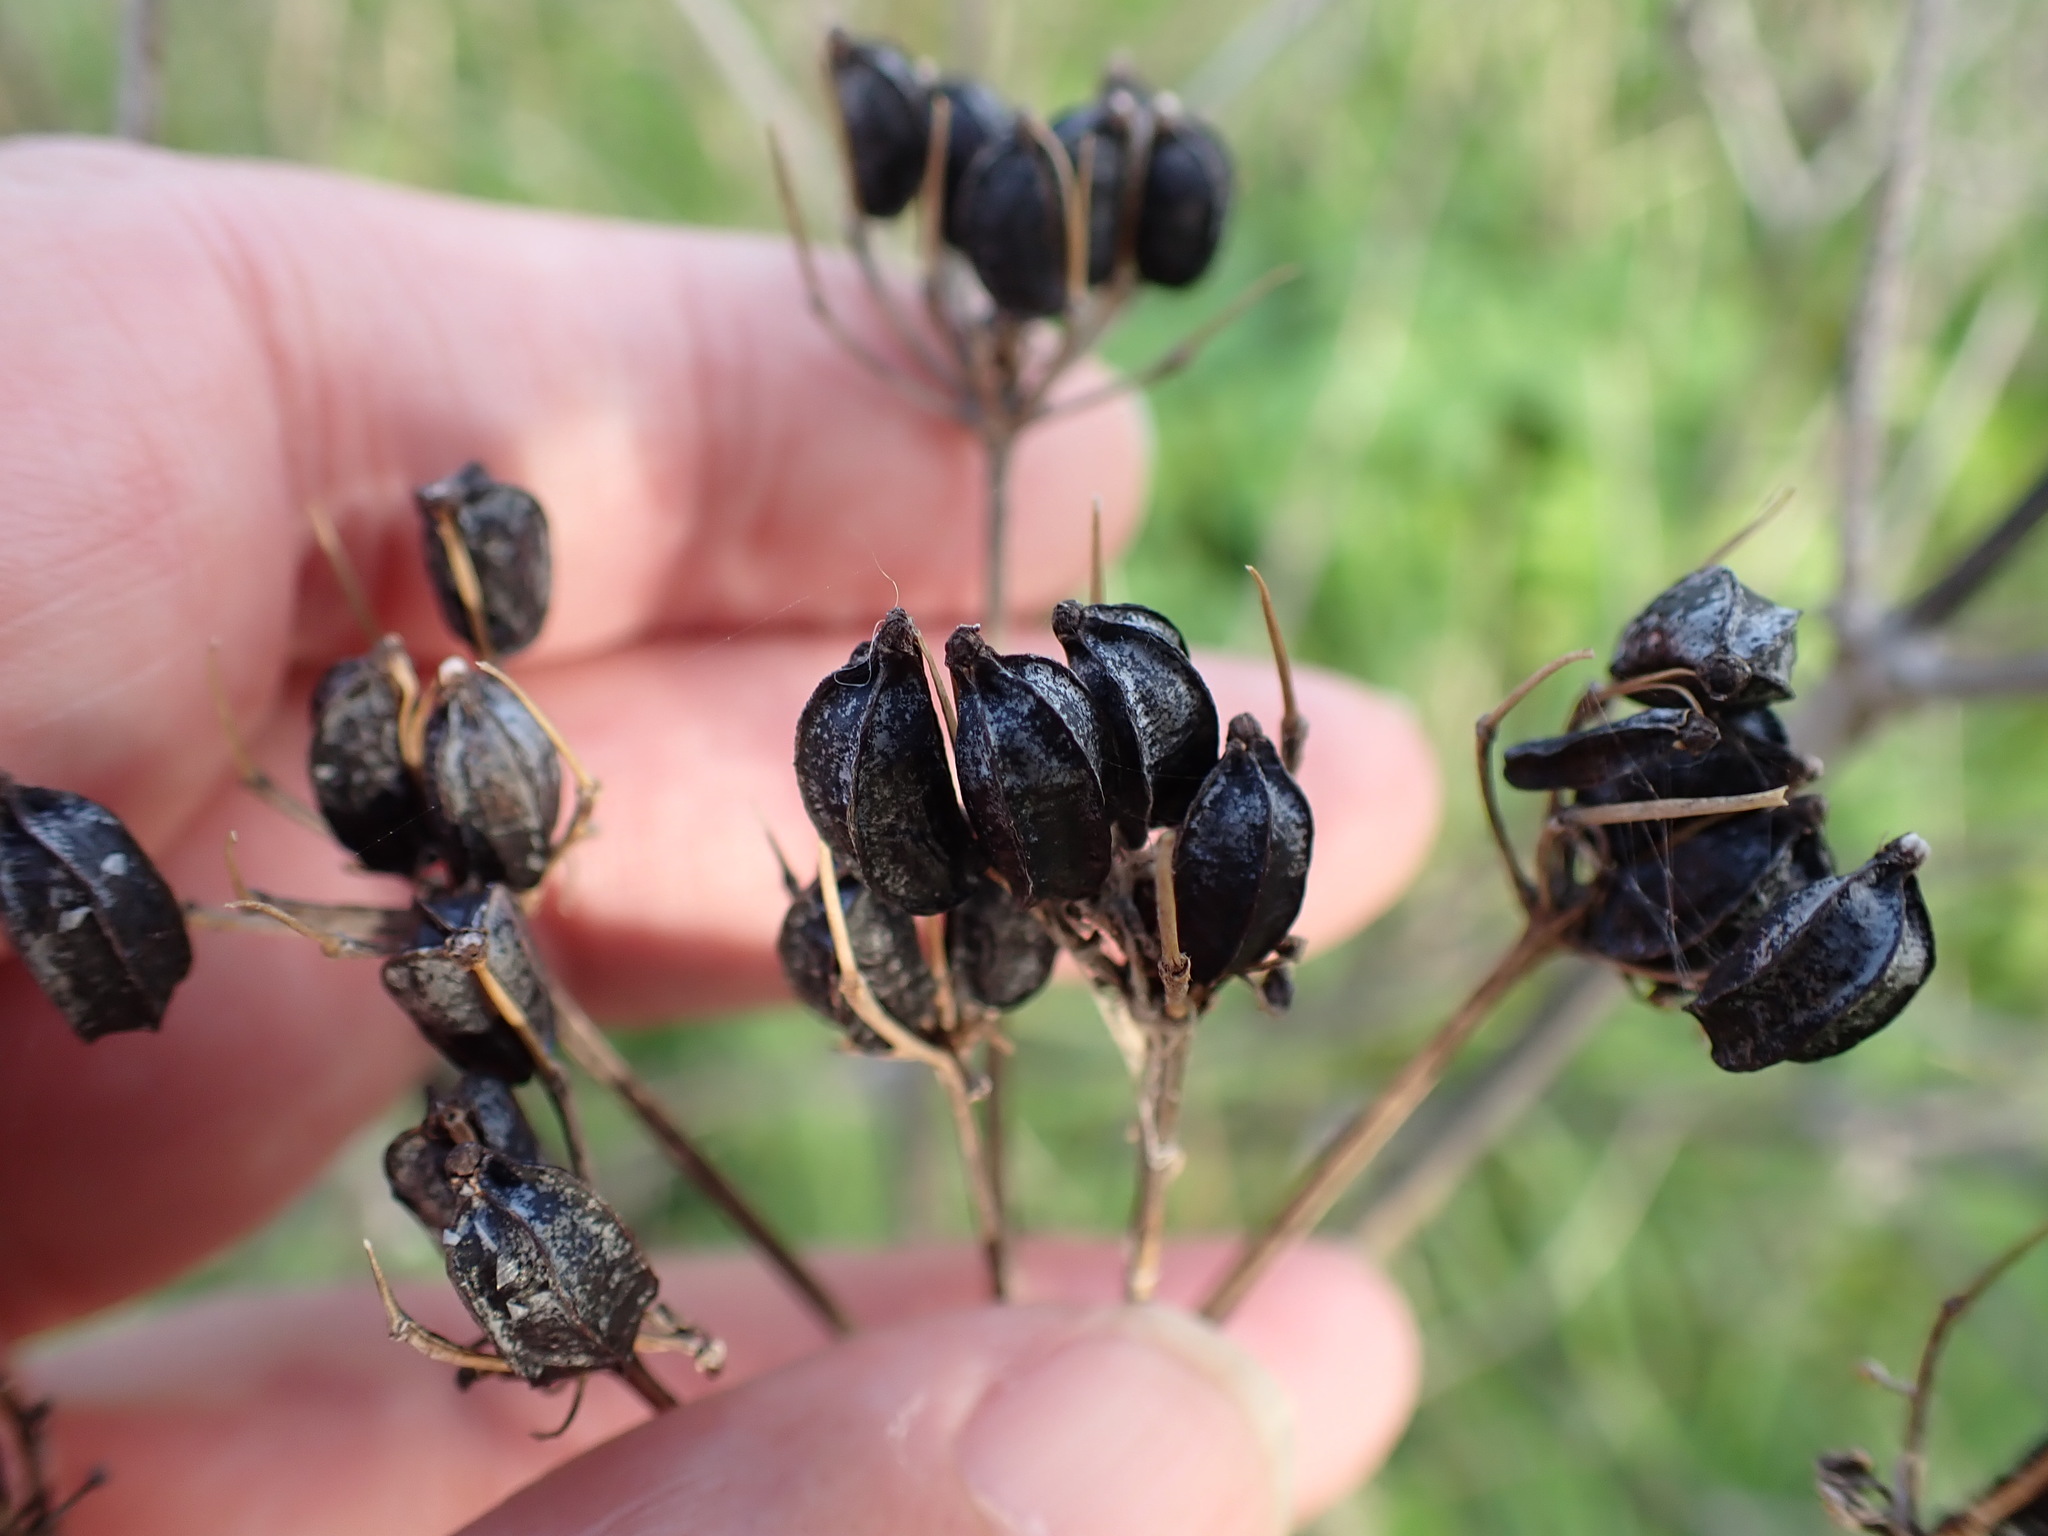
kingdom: Plantae
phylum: Tracheophyta
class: Magnoliopsida
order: Apiales
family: Apiaceae
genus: Smyrnium
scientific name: Smyrnium olusatrum
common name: Alexanders
